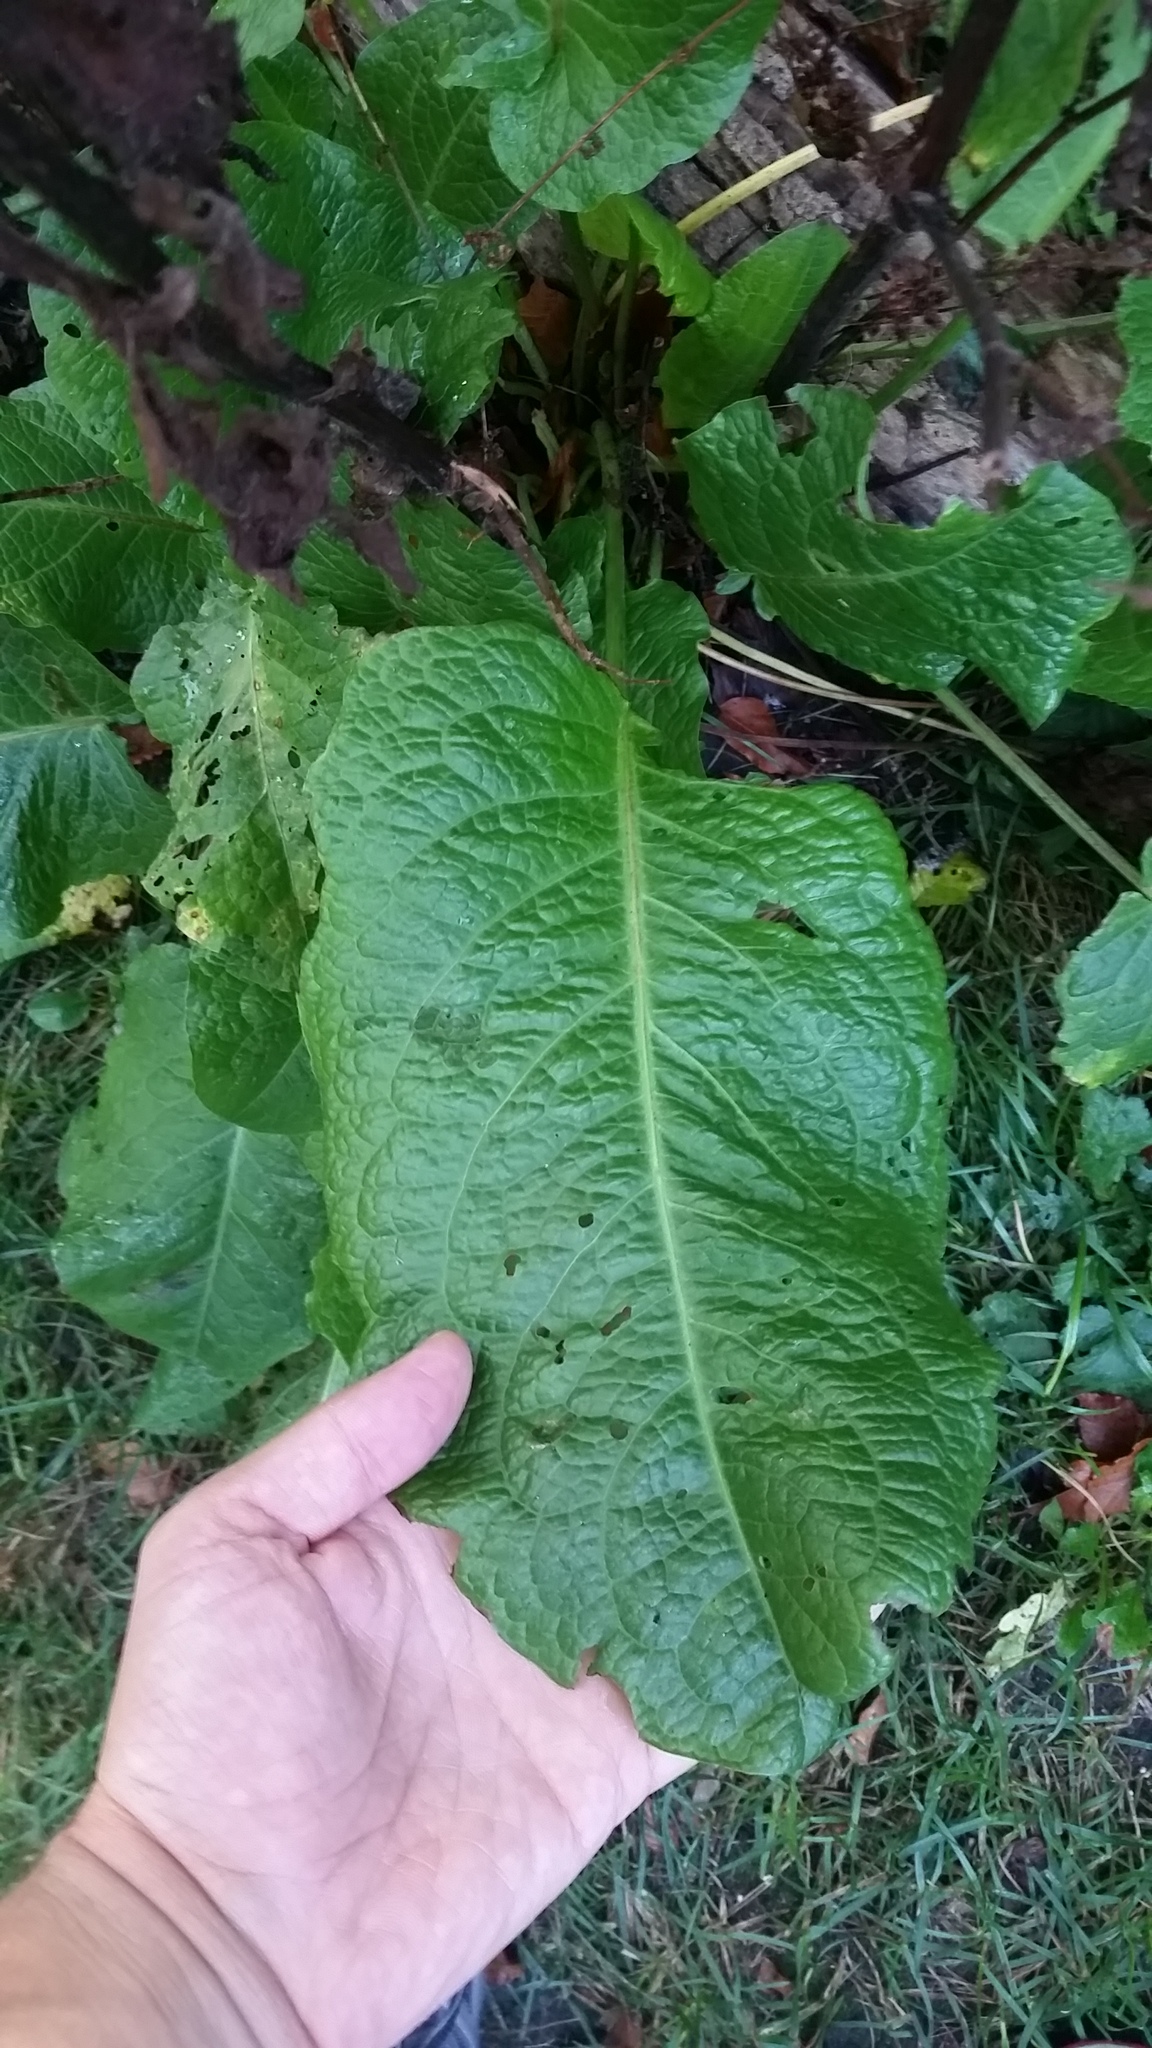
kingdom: Plantae
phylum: Tracheophyta
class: Magnoliopsida
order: Caryophyllales
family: Polygonaceae
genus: Rumex
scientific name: Rumex obtusifolius
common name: Bitter dock
